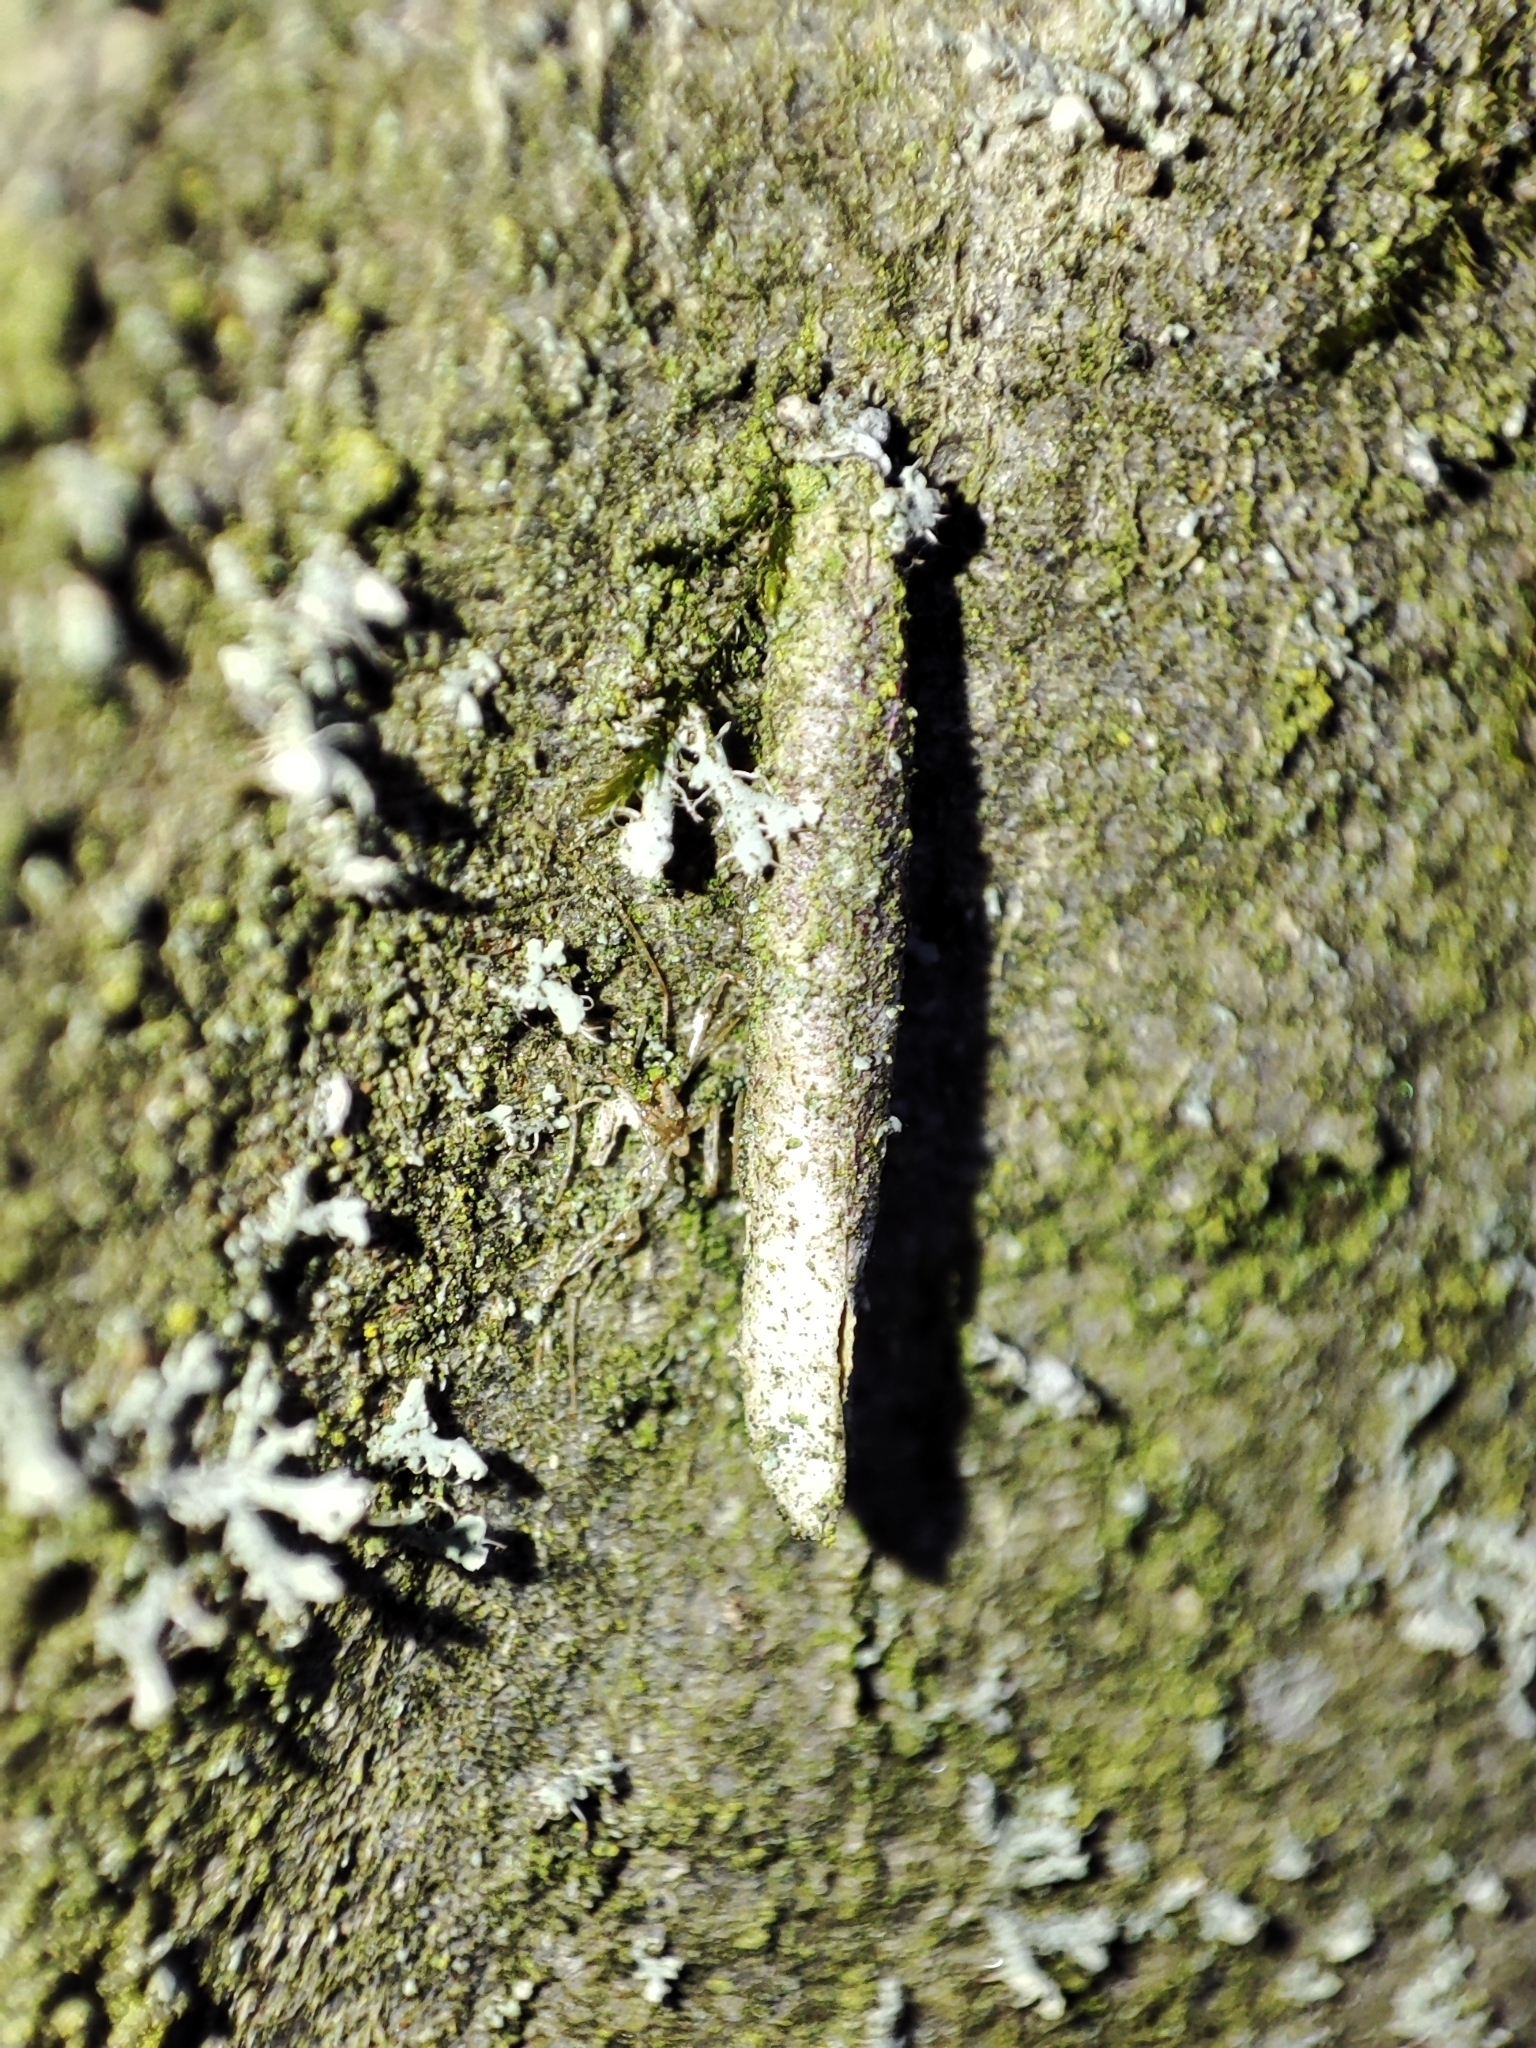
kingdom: Animalia
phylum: Arthropoda
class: Insecta
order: Lepidoptera
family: Psychidae
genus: Taleporia
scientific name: Taleporia tubulosa
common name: Brown smoke
